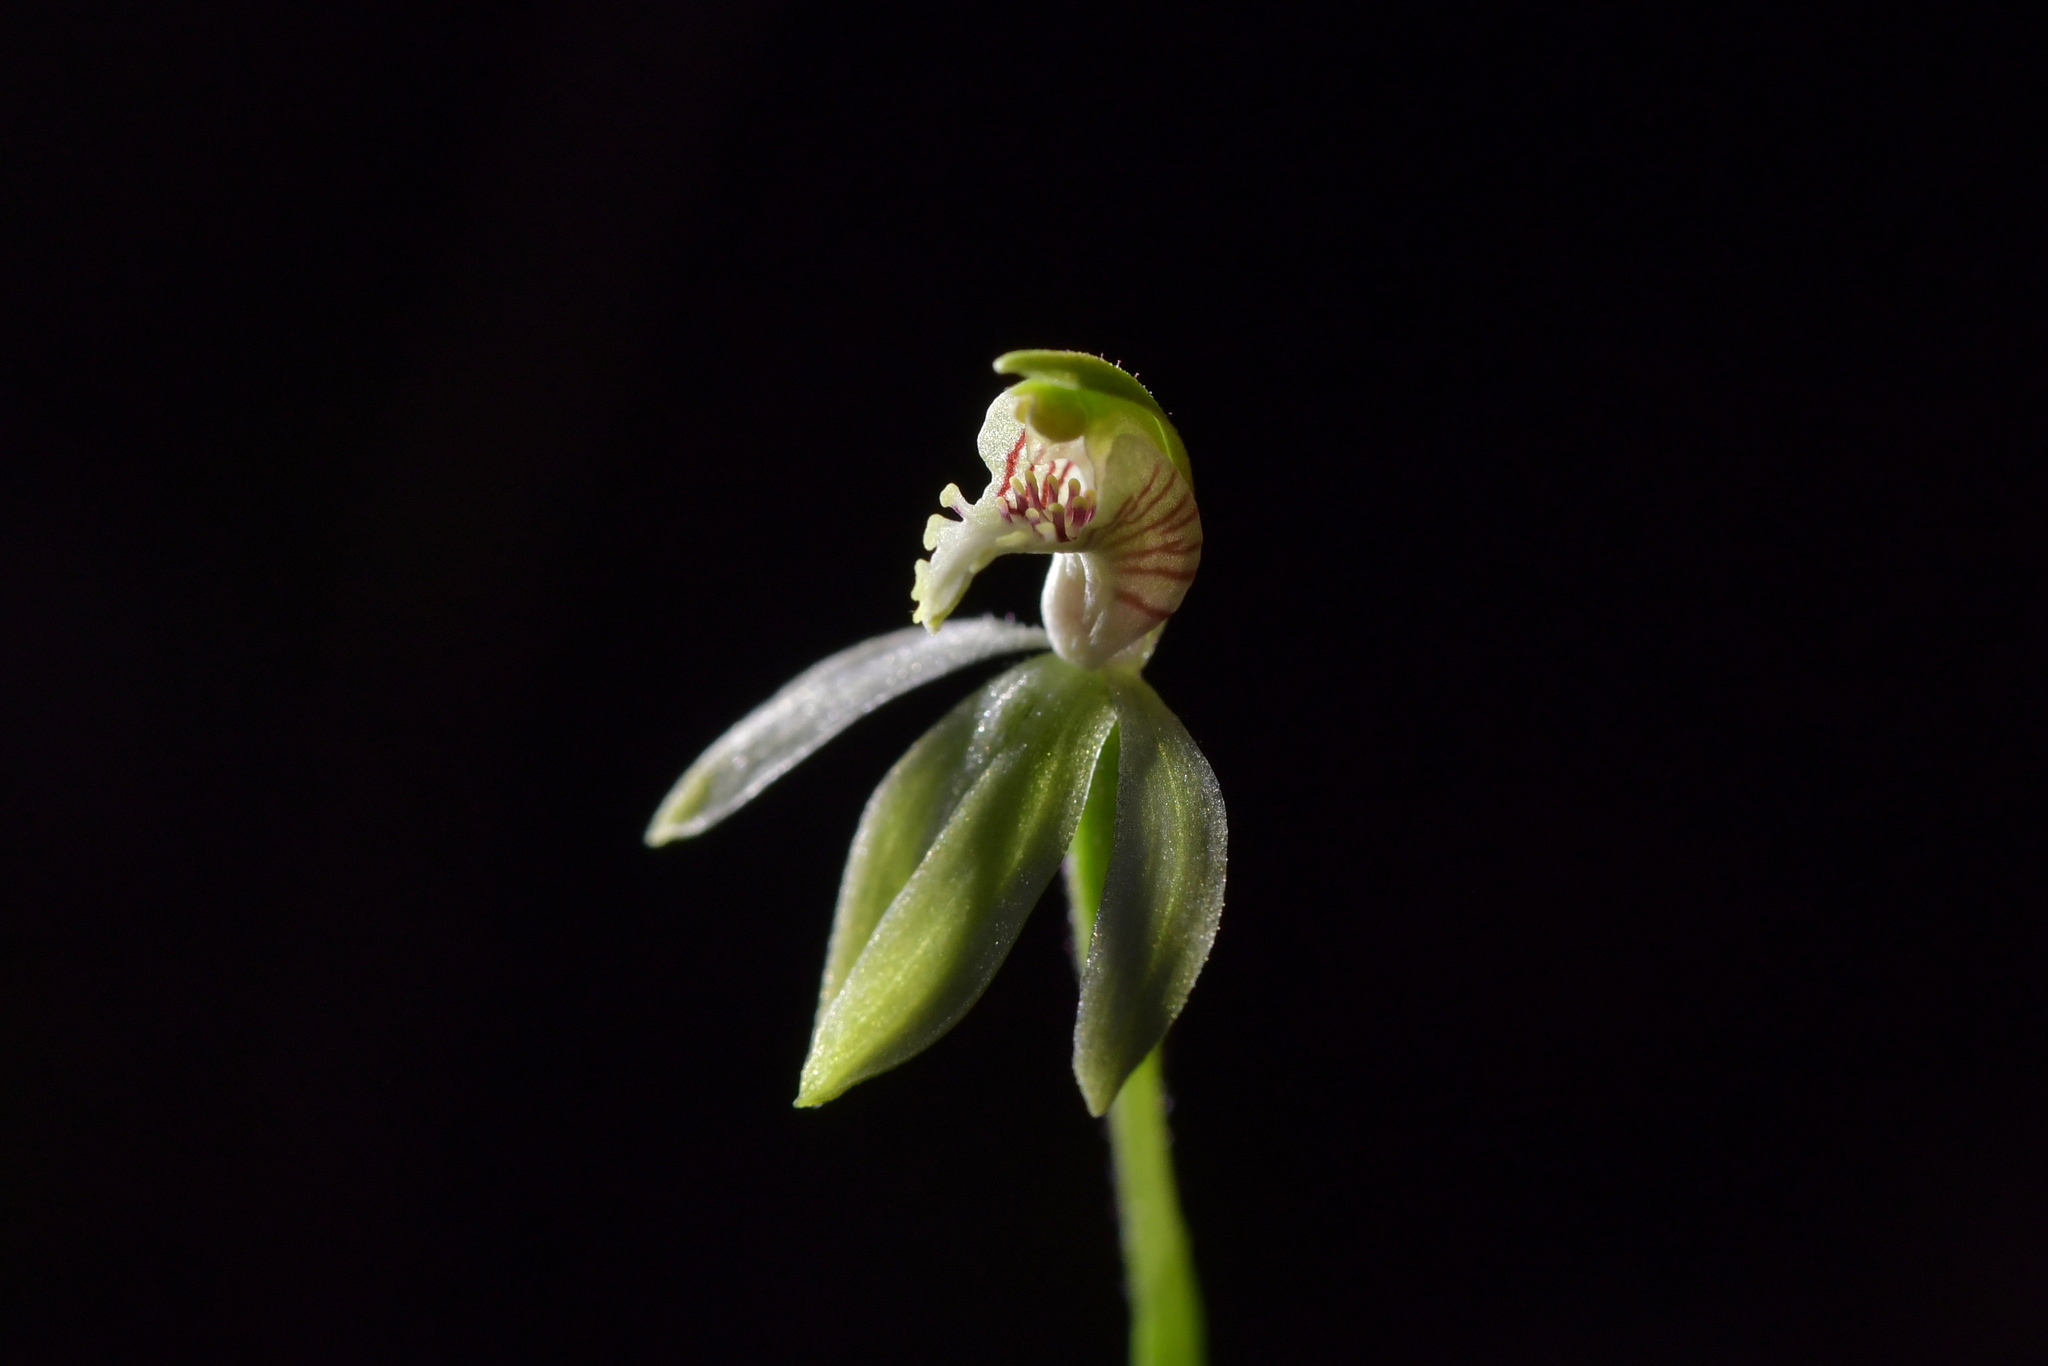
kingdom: Plantae
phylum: Tracheophyta
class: Liliopsida
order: Asparagales
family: Orchidaceae
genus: Caladenia
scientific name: Caladenia chlorostyla
